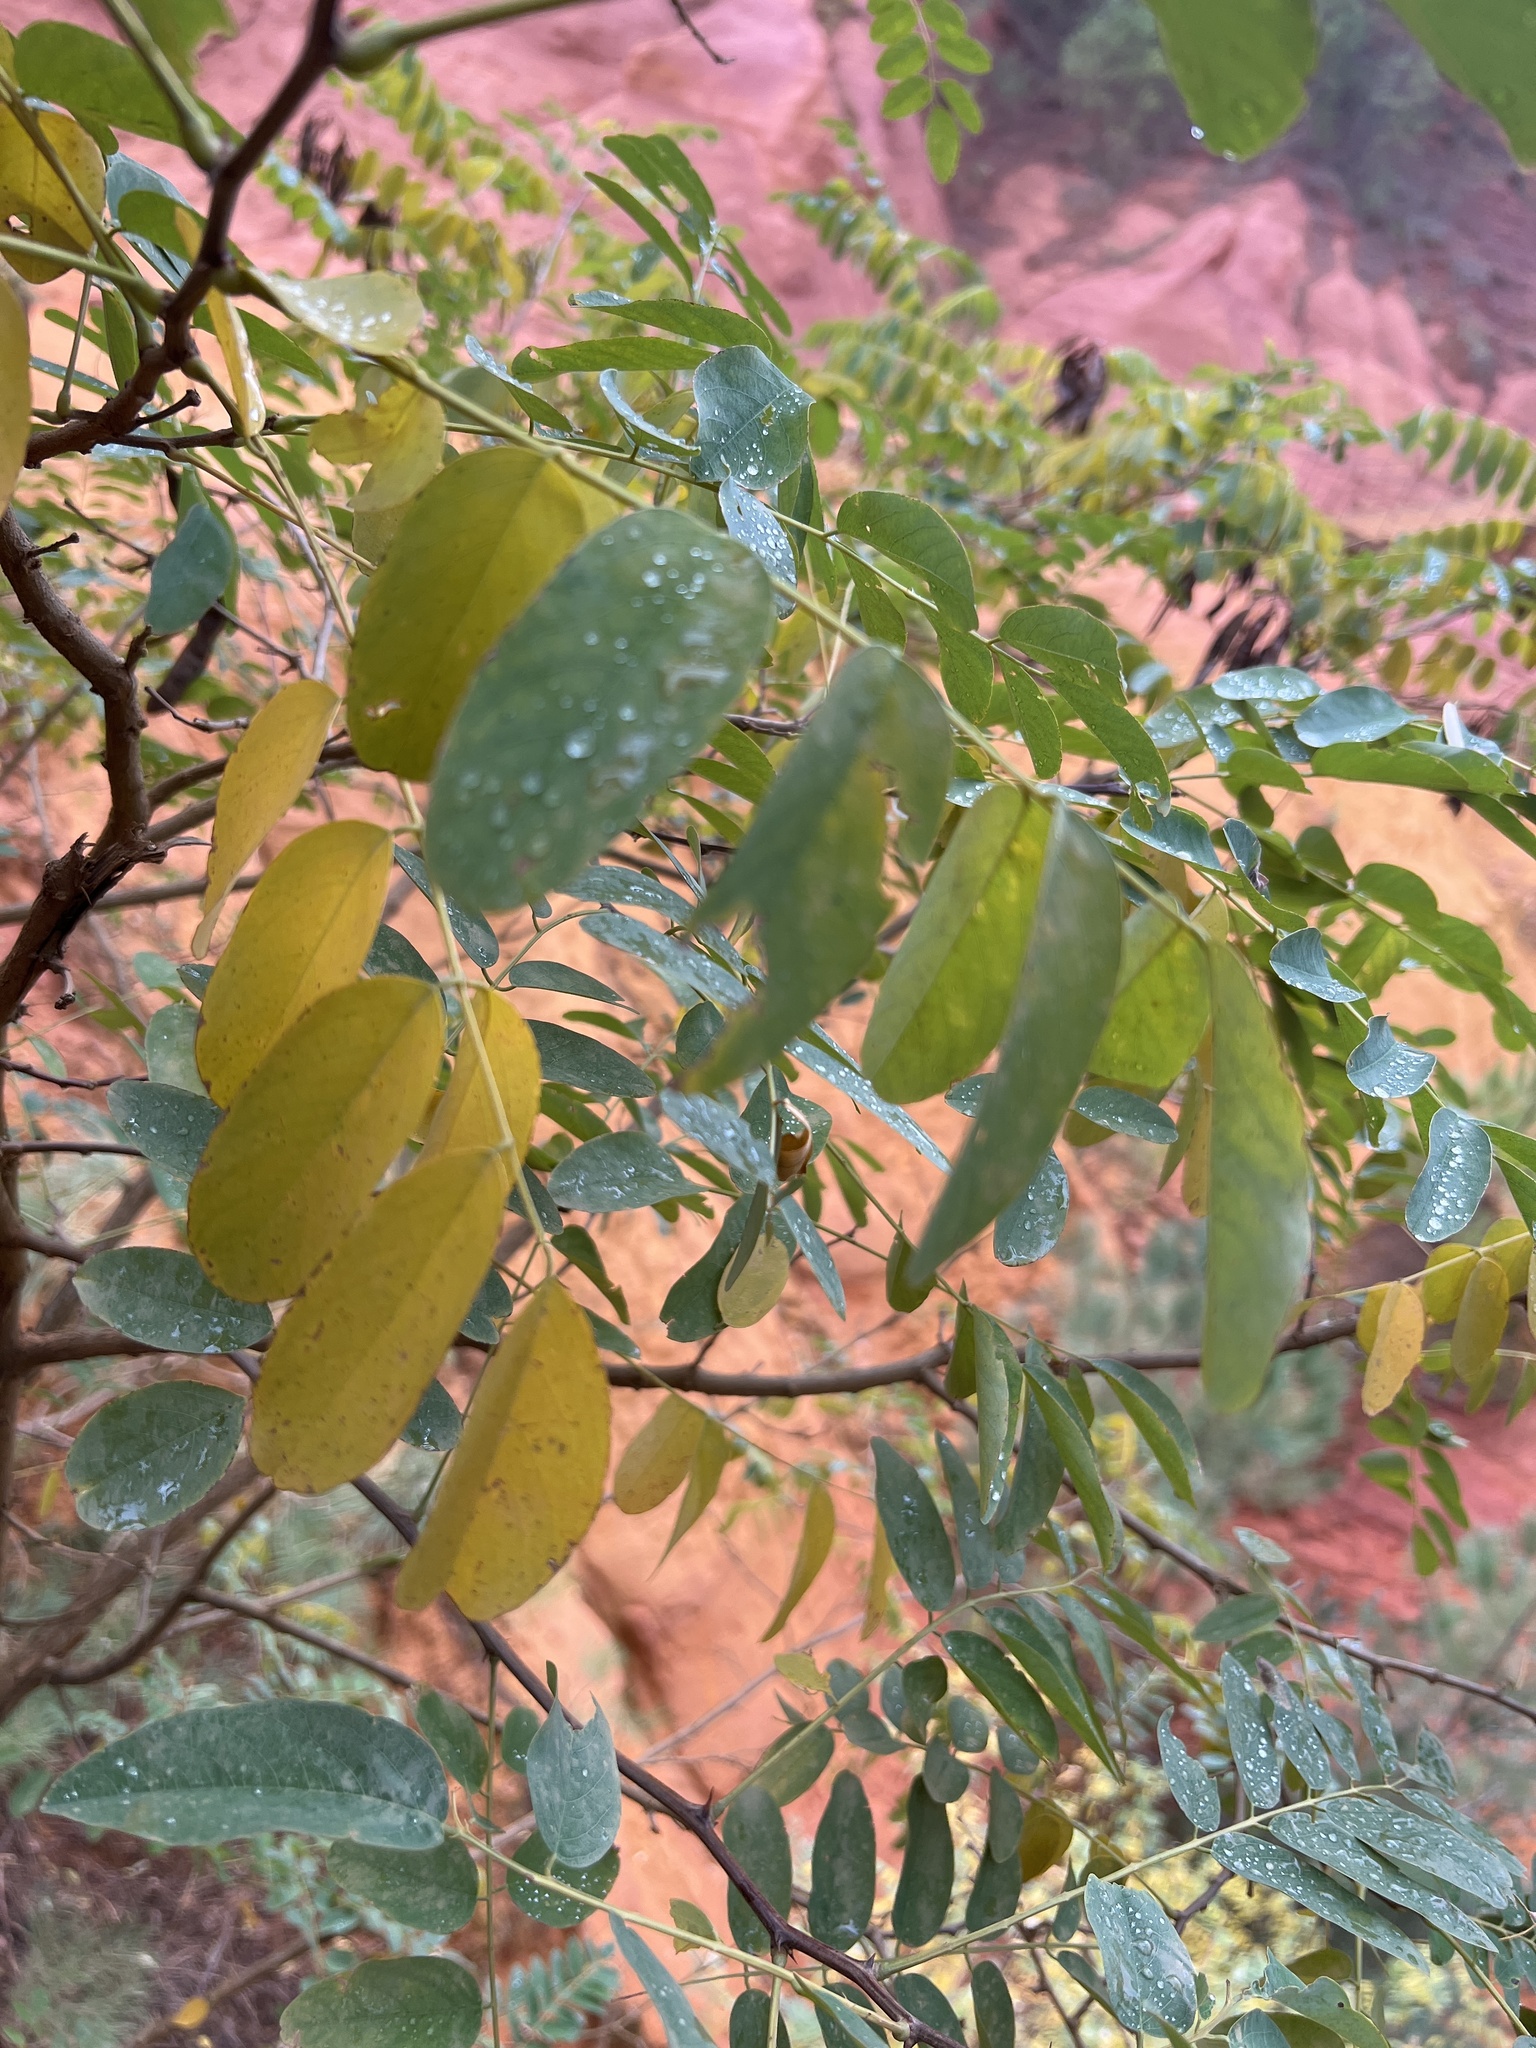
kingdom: Plantae
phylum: Tracheophyta
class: Magnoliopsida
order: Fabales
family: Fabaceae
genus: Robinia
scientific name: Robinia pseudoacacia
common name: Black locust
